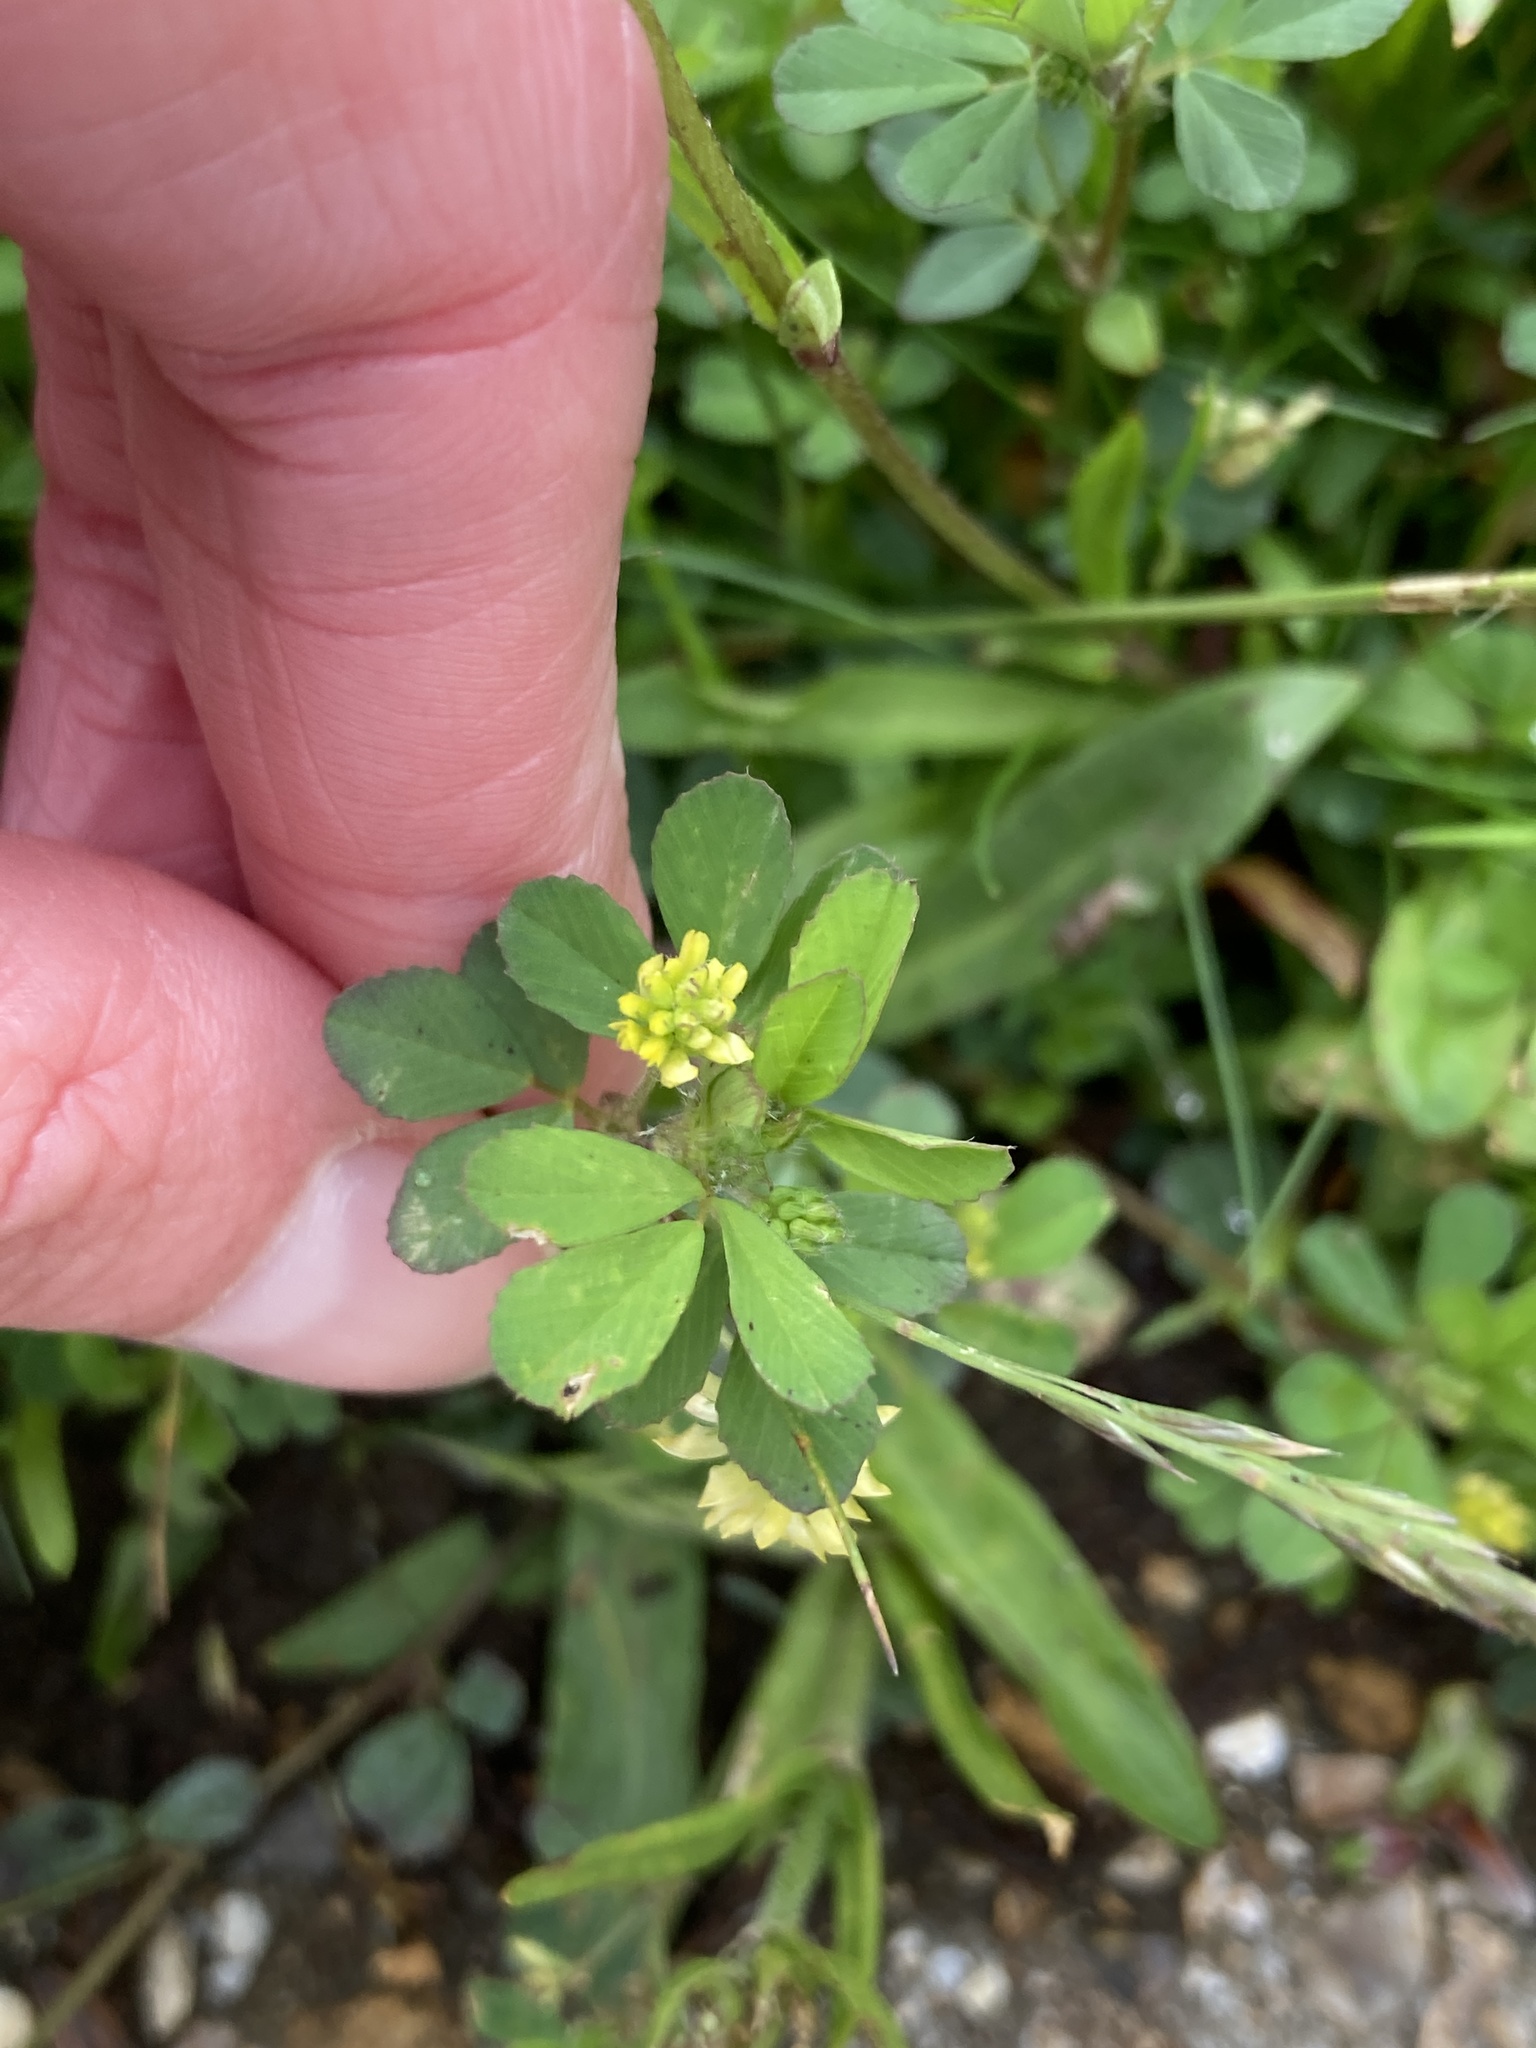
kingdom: Plantae
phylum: Tracheophyta
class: Magnoliopsida
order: Fabales
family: Fabaceae
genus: Trifolium
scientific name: Trifolium dubium
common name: Suckling clover
